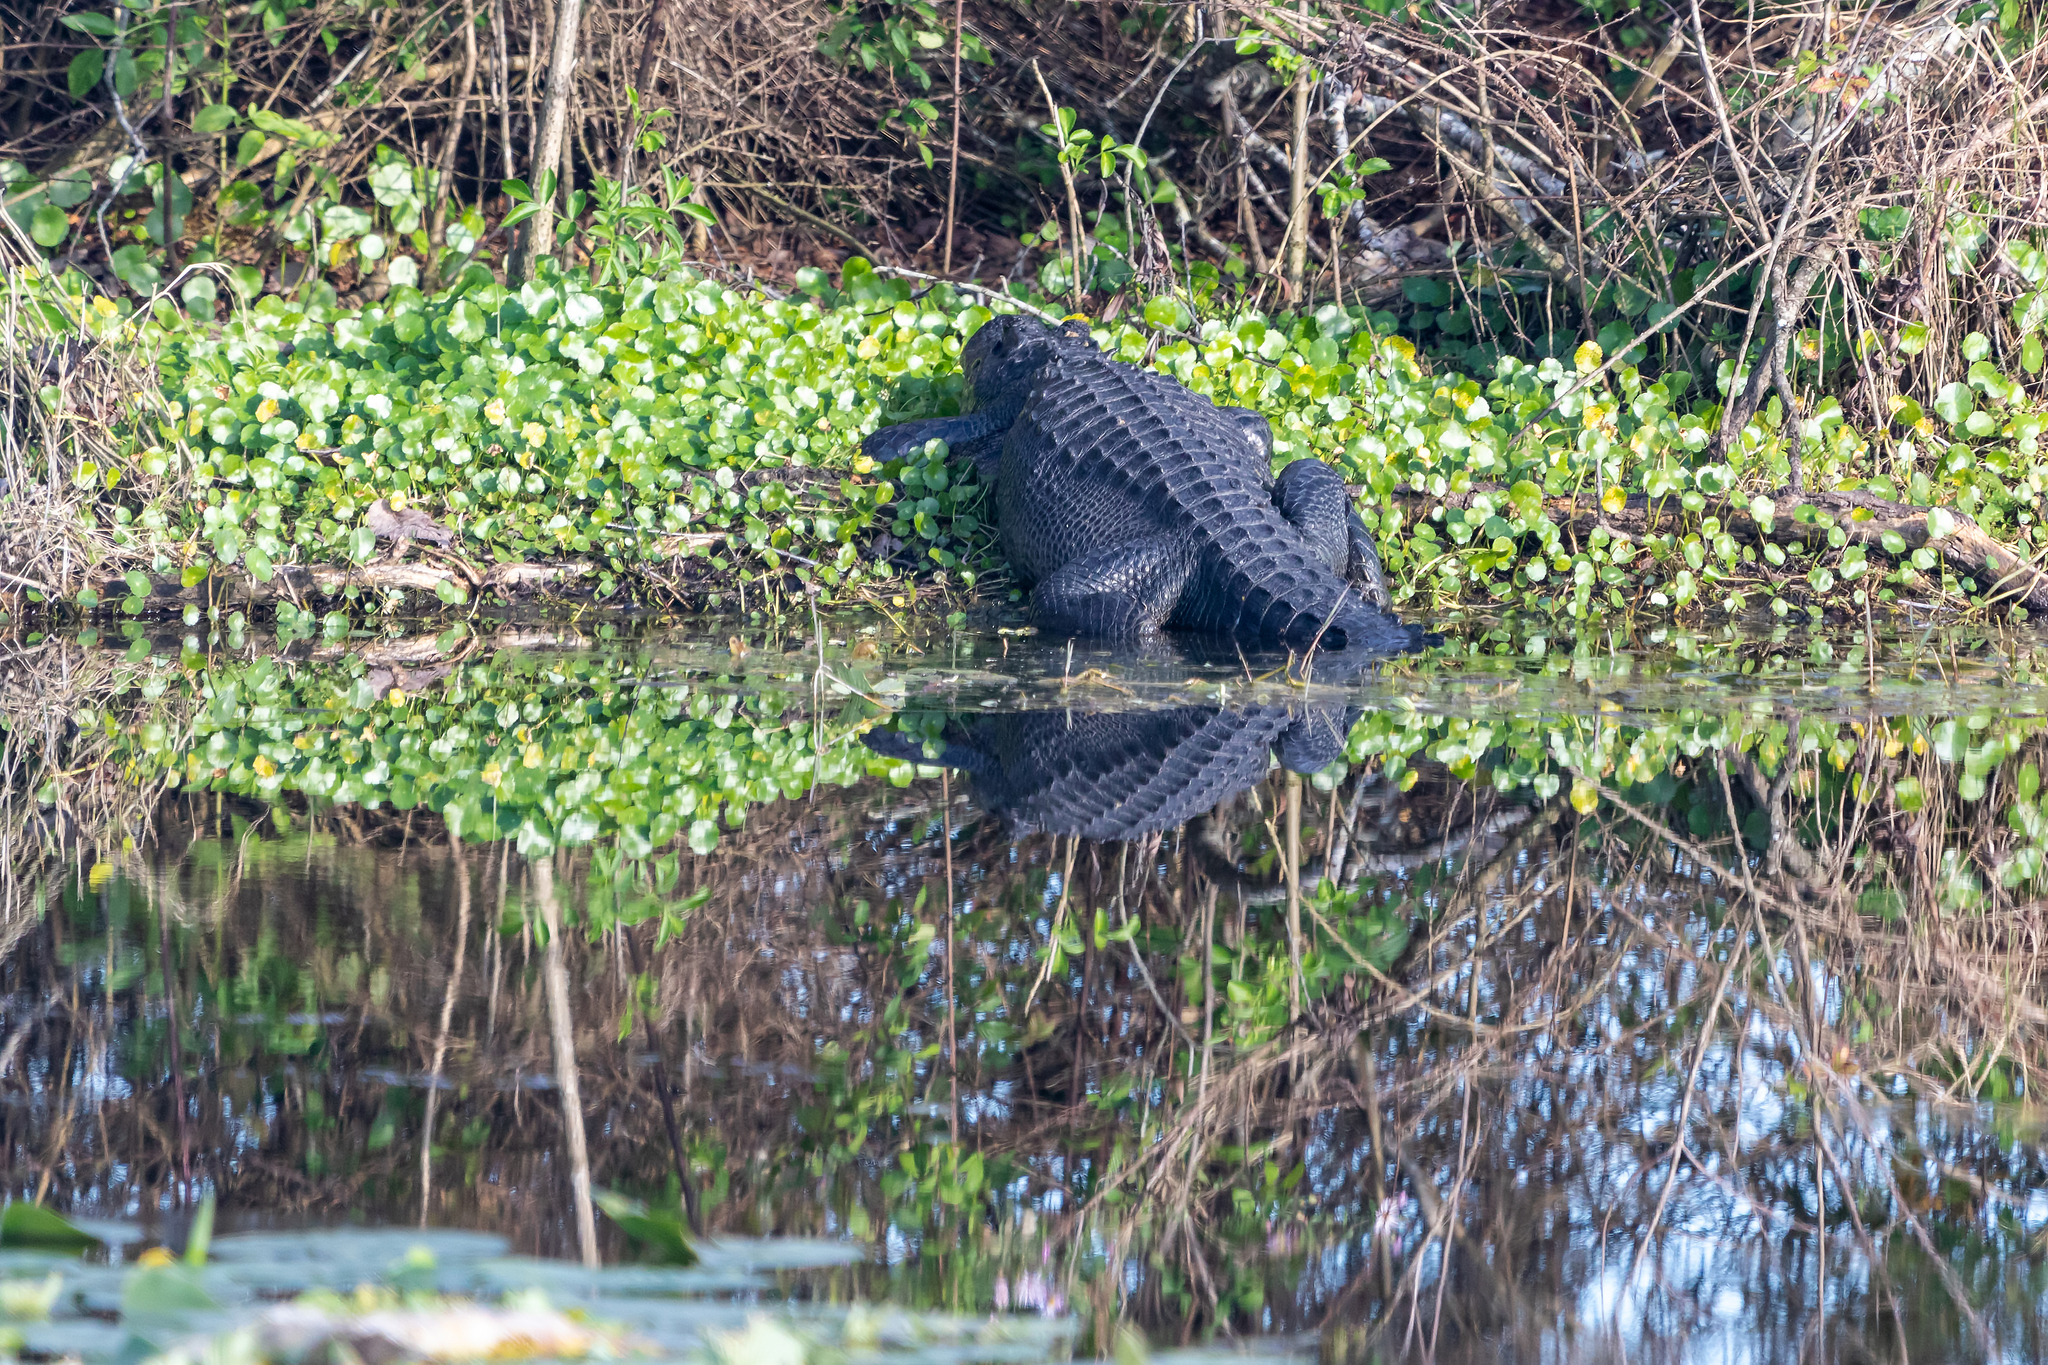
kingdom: Animalia
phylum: Chordata
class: Crocodylia
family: Alligatoridae
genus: Alligator
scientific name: Alligator mississippiensis
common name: American alligator
